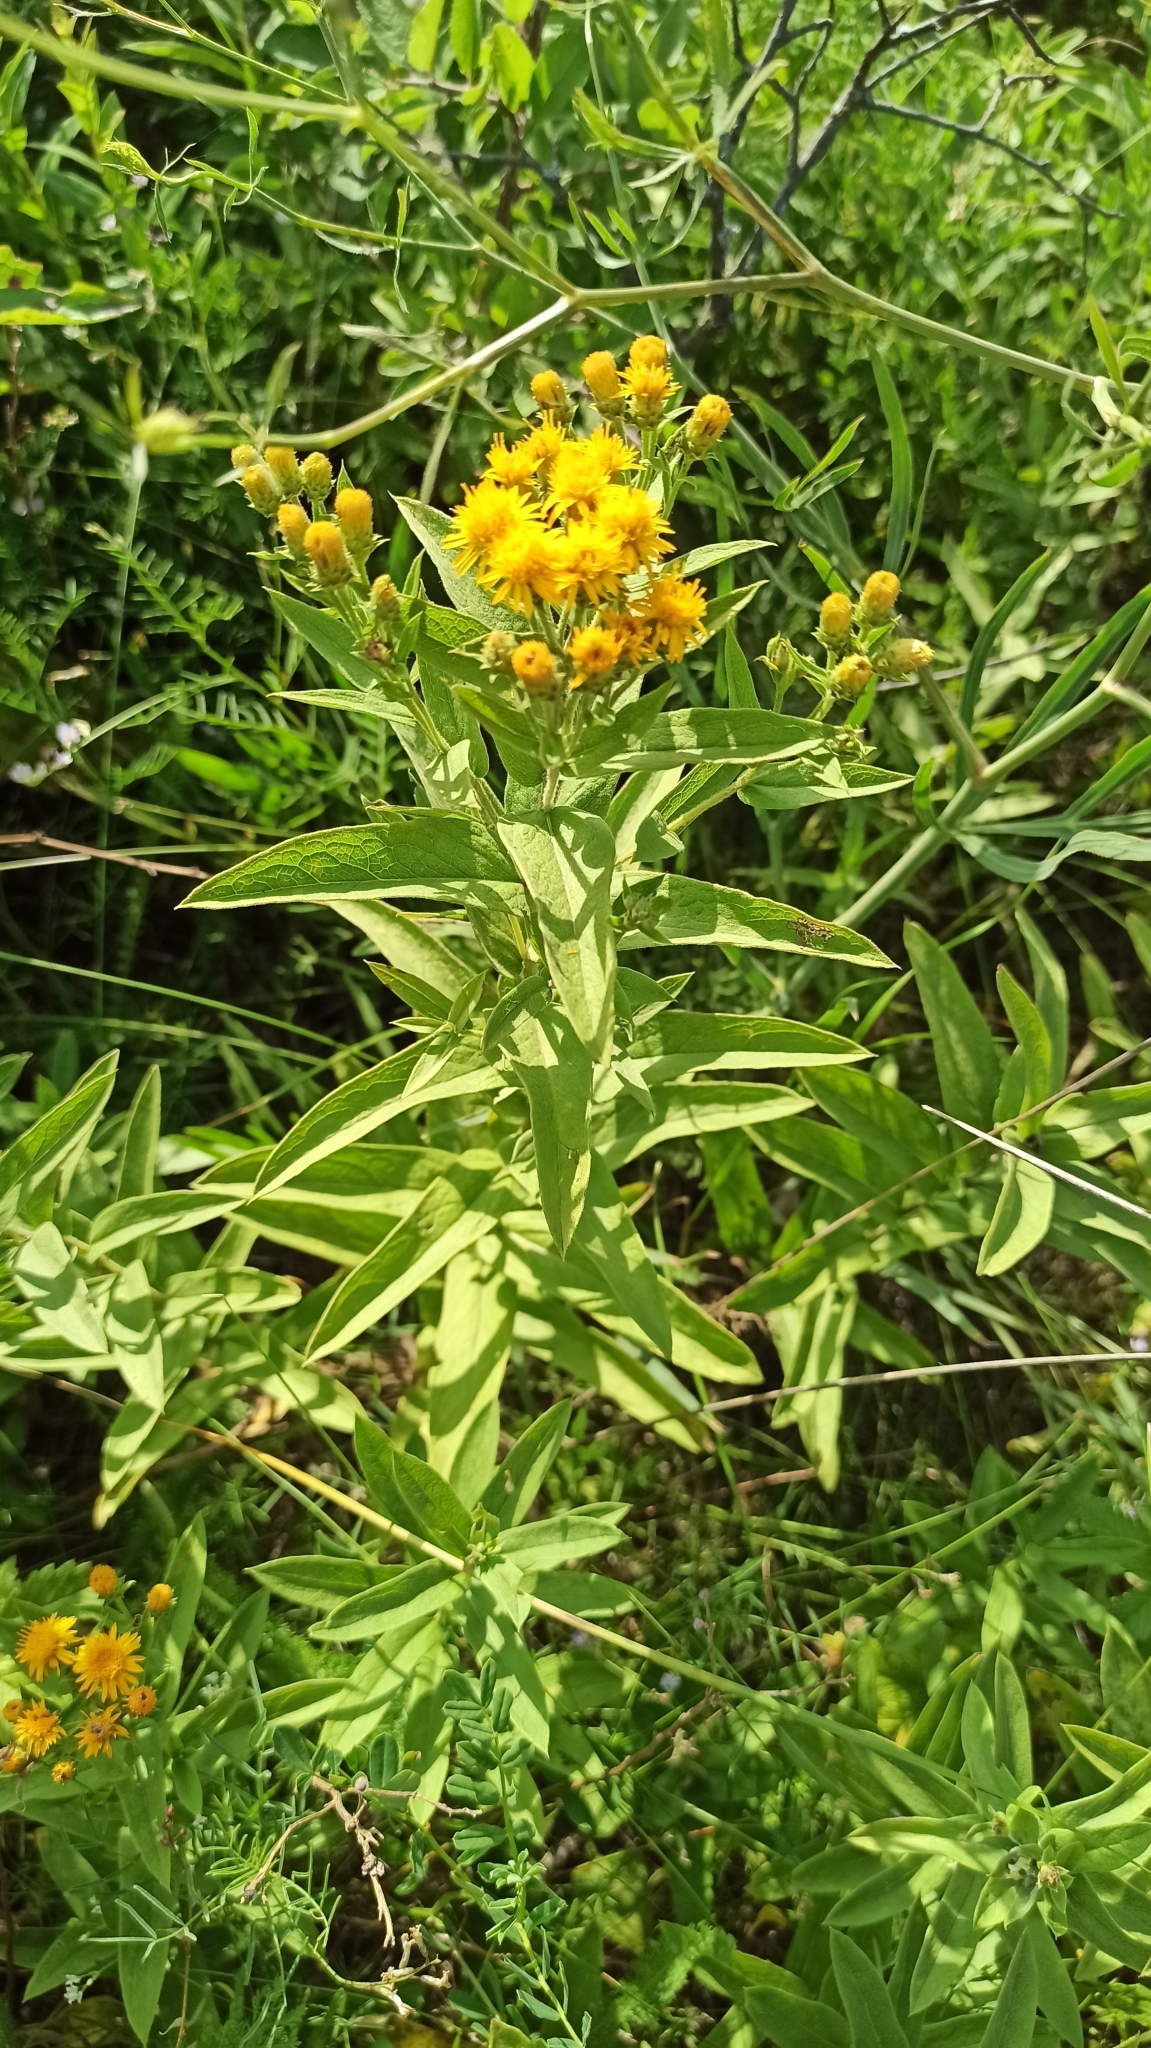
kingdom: Plantae
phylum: Tracheophyta
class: Magnoliopsida
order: Asterales
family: Asteraceae
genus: Pentanema
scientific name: Pentanema germanicum
